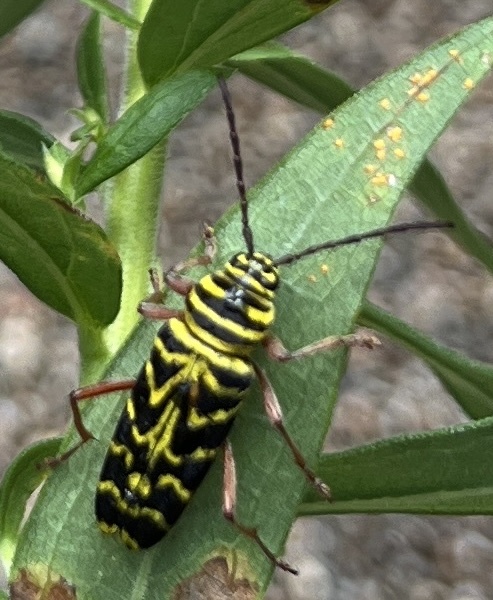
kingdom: Animalia
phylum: Arthropoda
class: Insecta
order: Coleoptera
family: Cerambycidae
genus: Megacyllene
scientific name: Megacyllene robiniae
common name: Locust borer
